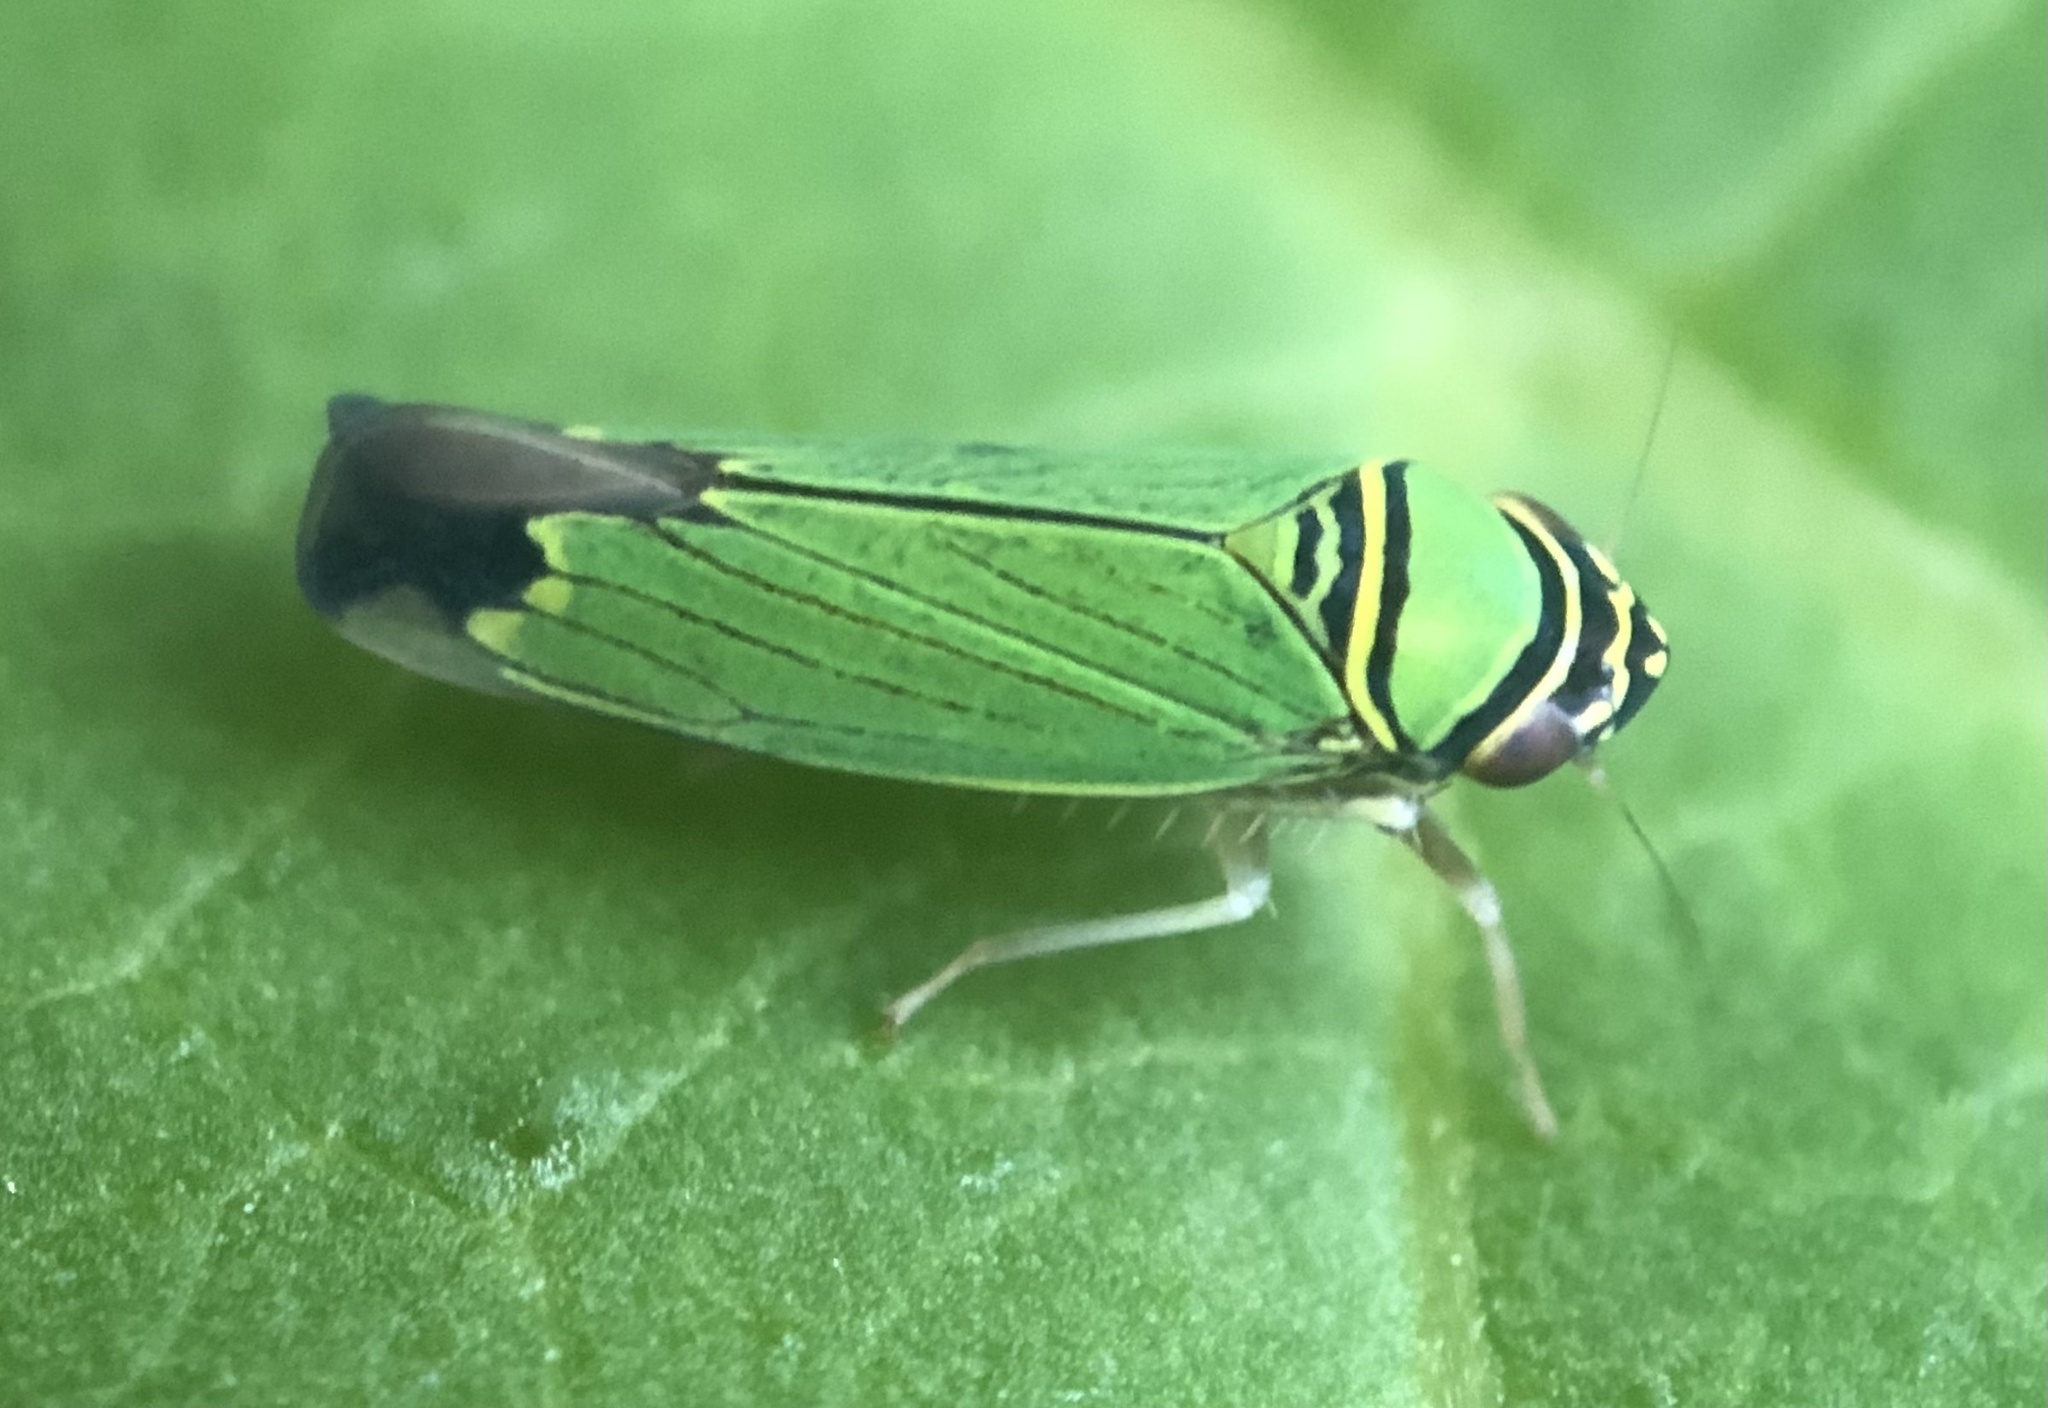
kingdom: Animalia
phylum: Arthropoda
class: Insecta
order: Hemiptera
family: Cicadellidae
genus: Tylozygus
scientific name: Tylozygus geometricus
